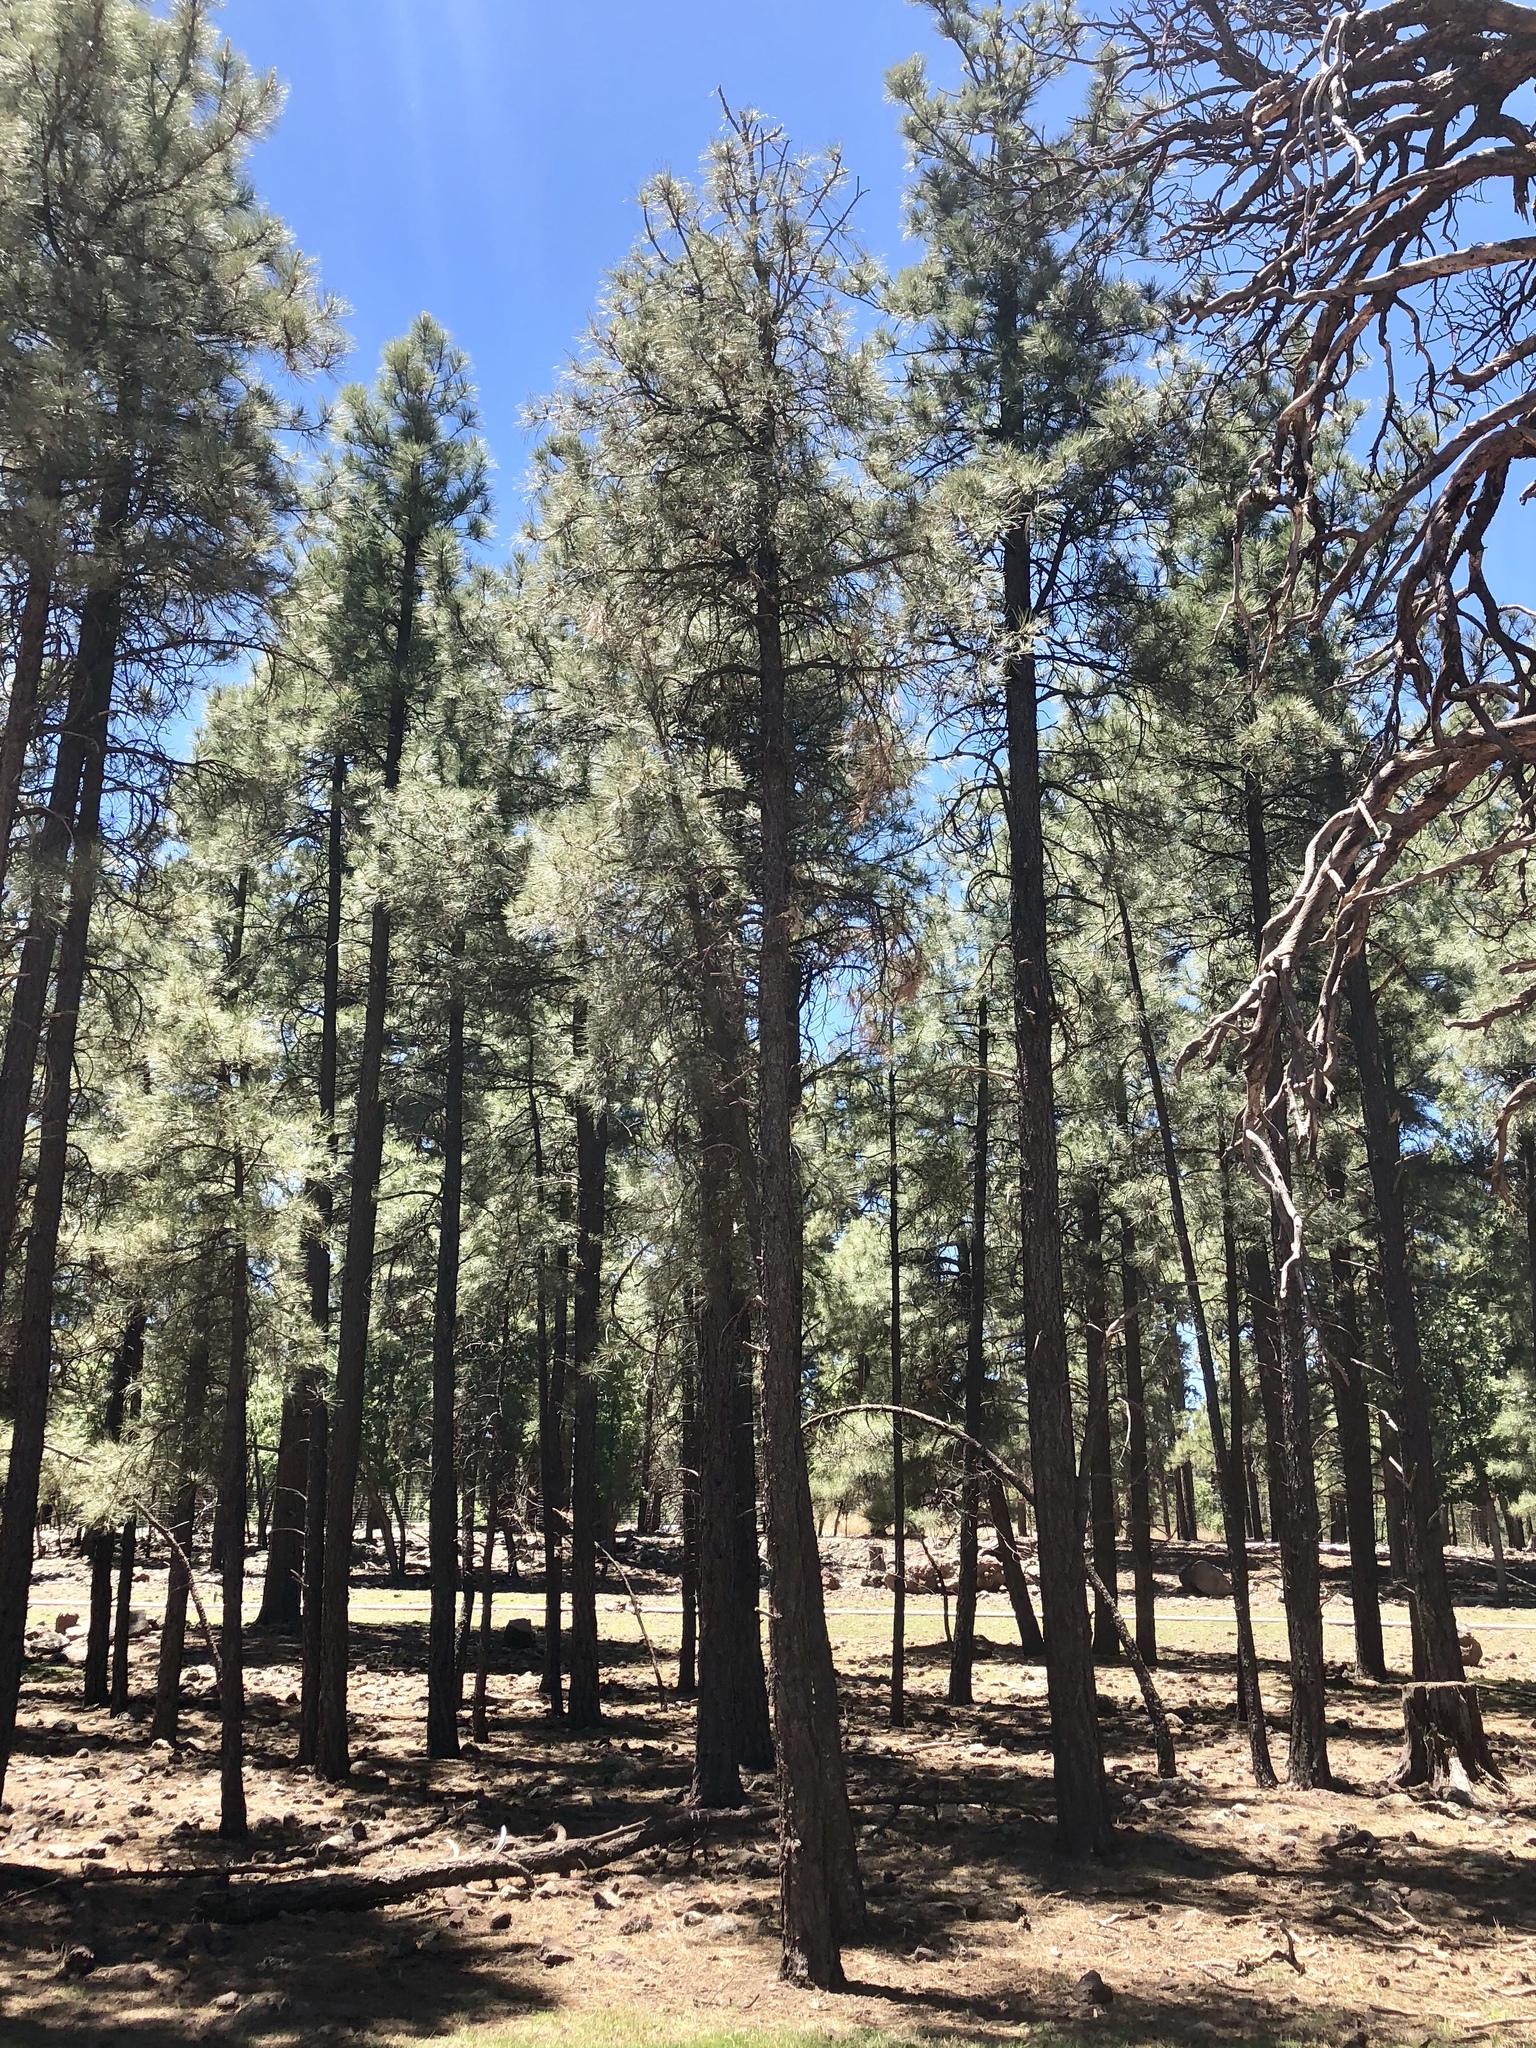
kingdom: Plantae
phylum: Tracheophyta
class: Pinopsida
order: Pinales
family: Pinaceae
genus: Pinus
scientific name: Pinus ponderosa
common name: Western yellow-pine
